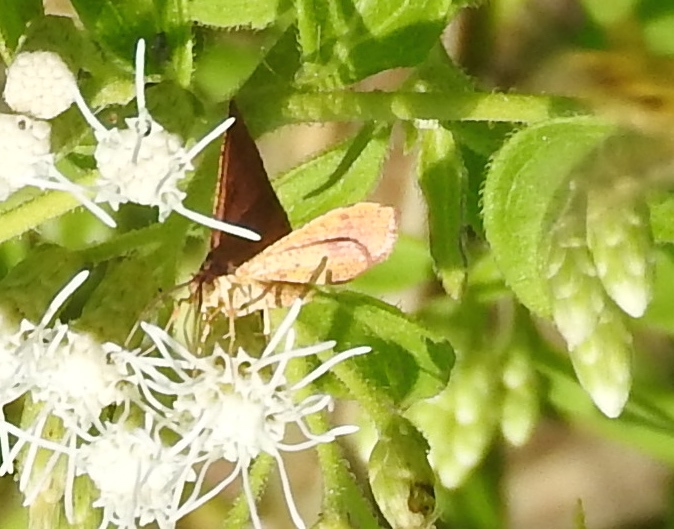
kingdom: Animalia
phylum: Arthropoda
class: Insecta
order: Lepidoptera
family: Geometridae
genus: Eusarca
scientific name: Eusarca
